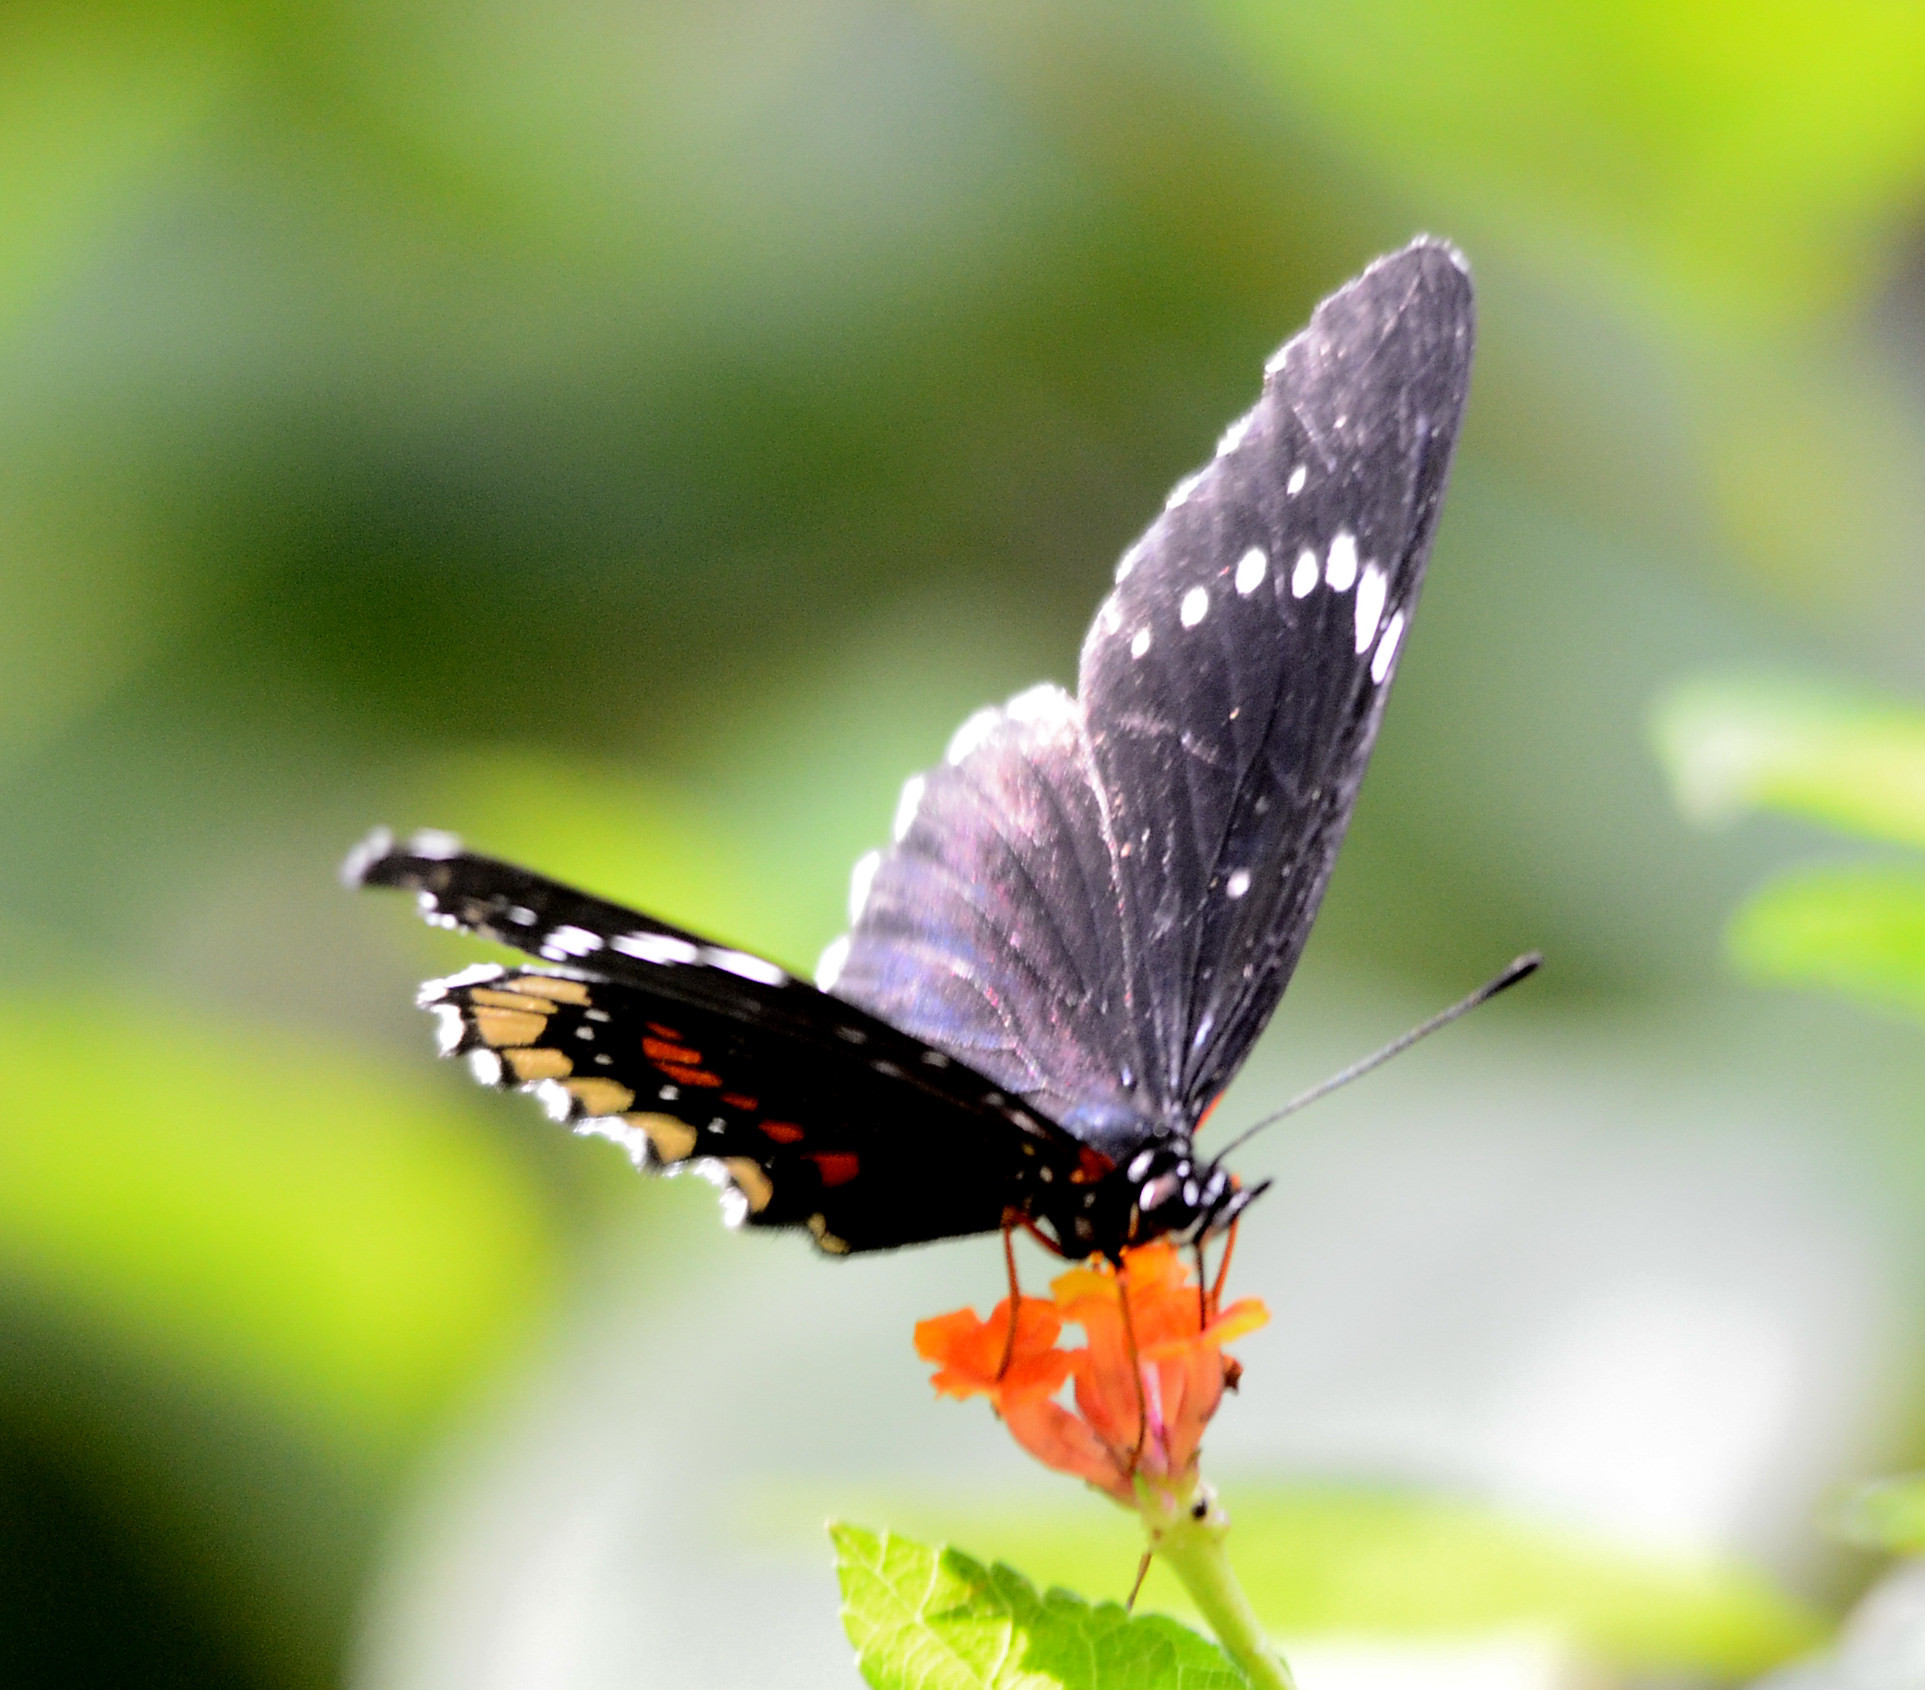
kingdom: Animalia
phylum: Arthropoda
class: Insecta
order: Lepidoptera
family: Nymphalidae
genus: Chlosyne
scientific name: Chlosyne hippodrome
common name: Simple patch
